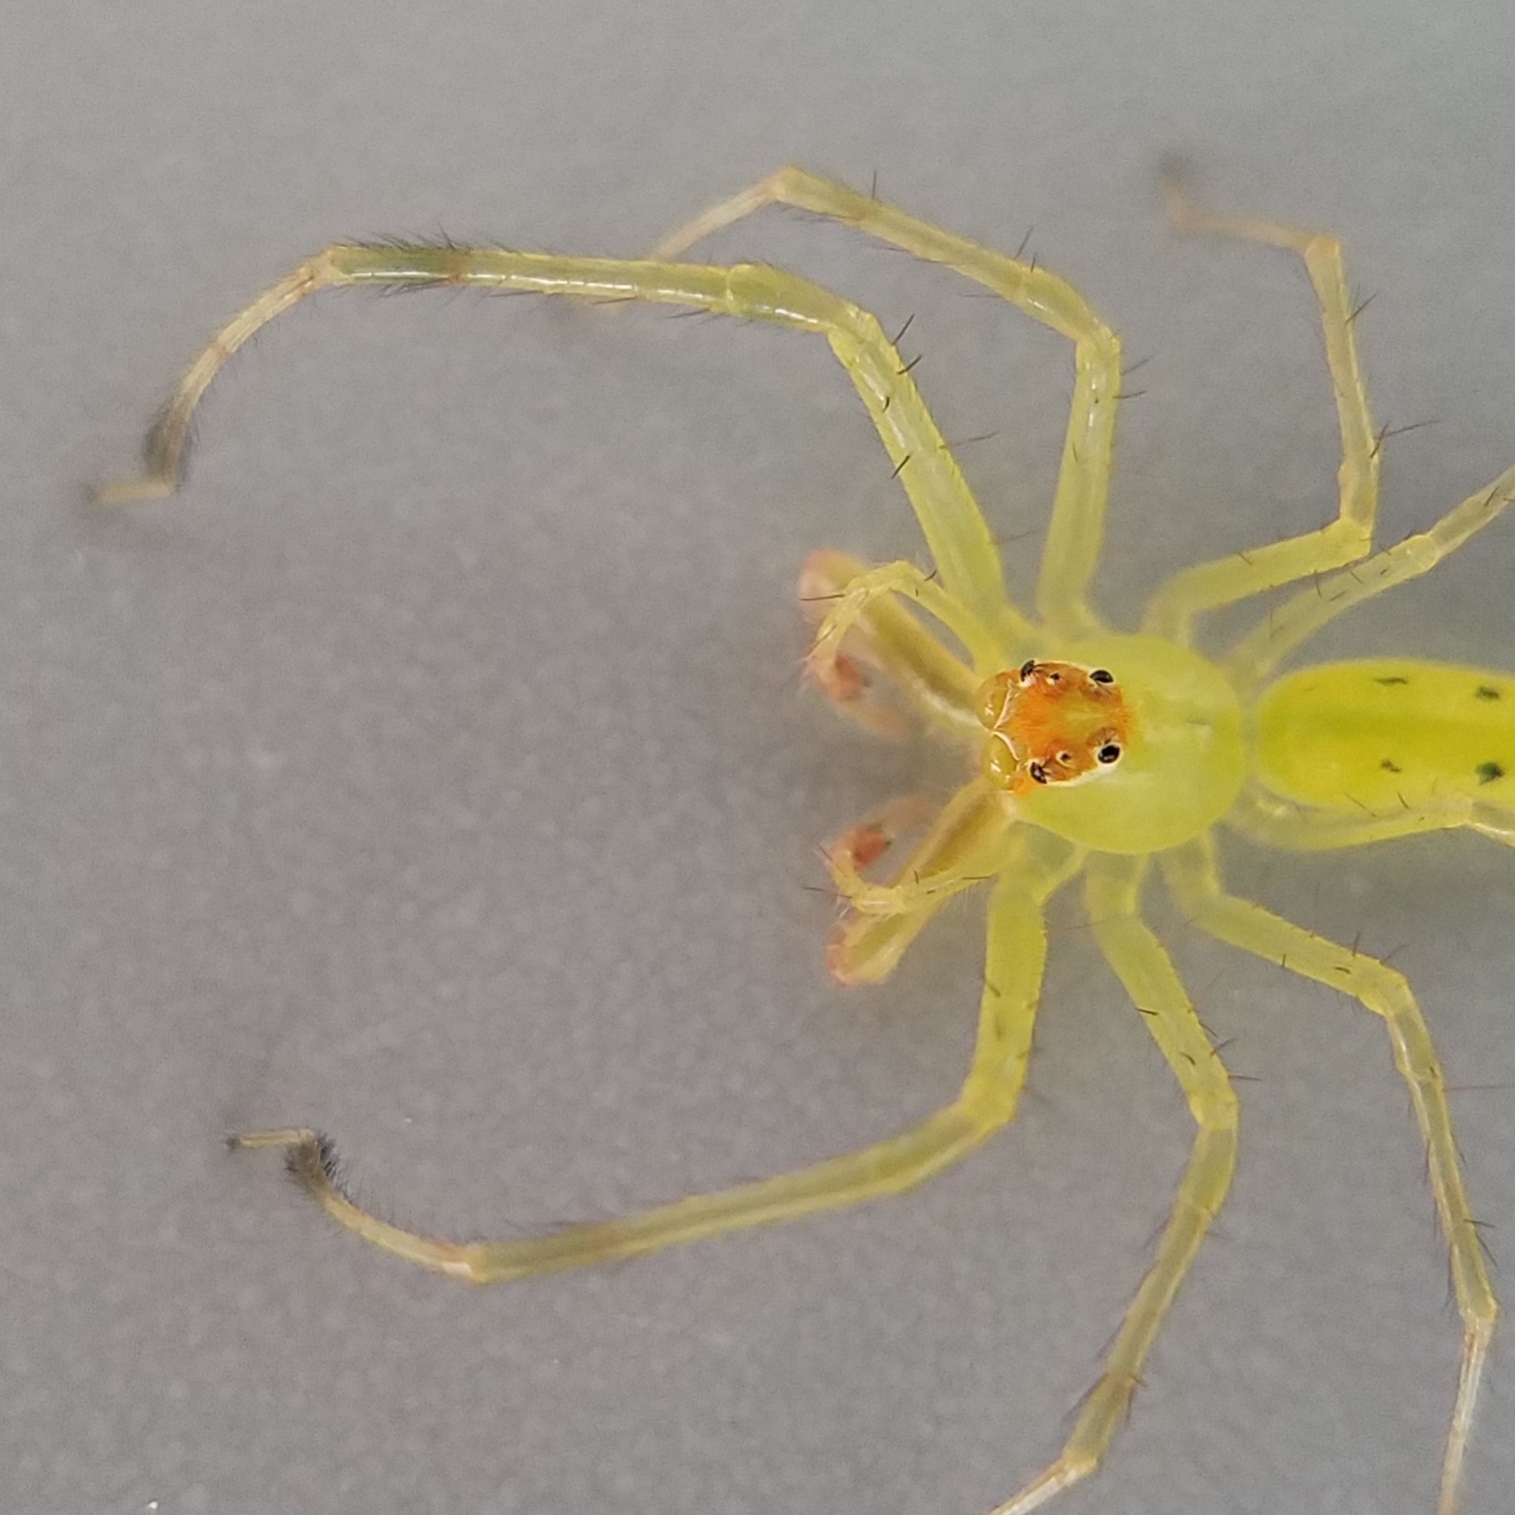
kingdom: Animalia
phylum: Arthropoda
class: Arachnida
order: Araneae
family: Salticidae
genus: Lyssomanes
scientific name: Lyssomanes viridis
